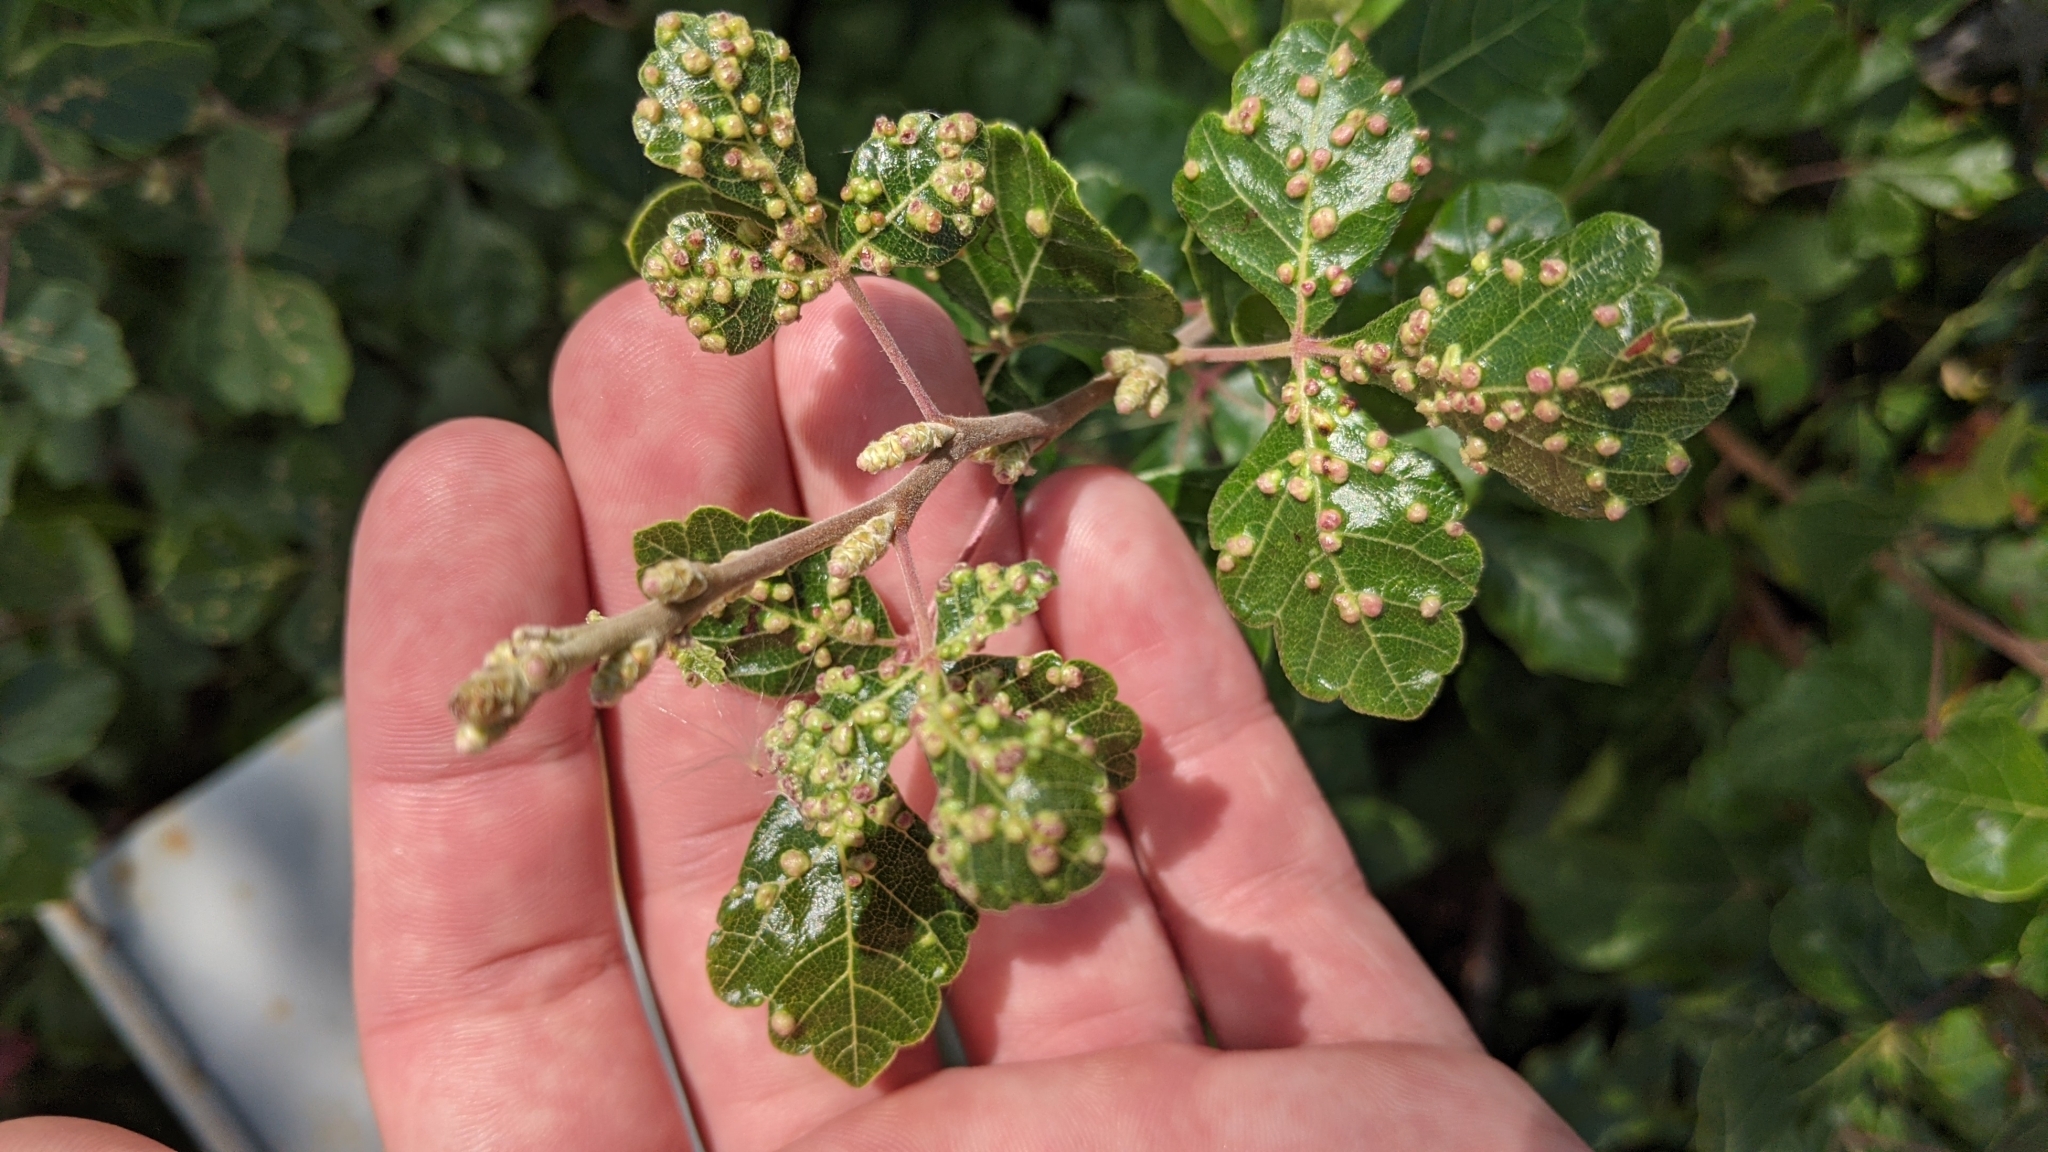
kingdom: Animalia
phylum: Arthropoda
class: Arachnida
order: Trombidiformes
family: Eriophyidae
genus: Aculops
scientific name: Aculops
